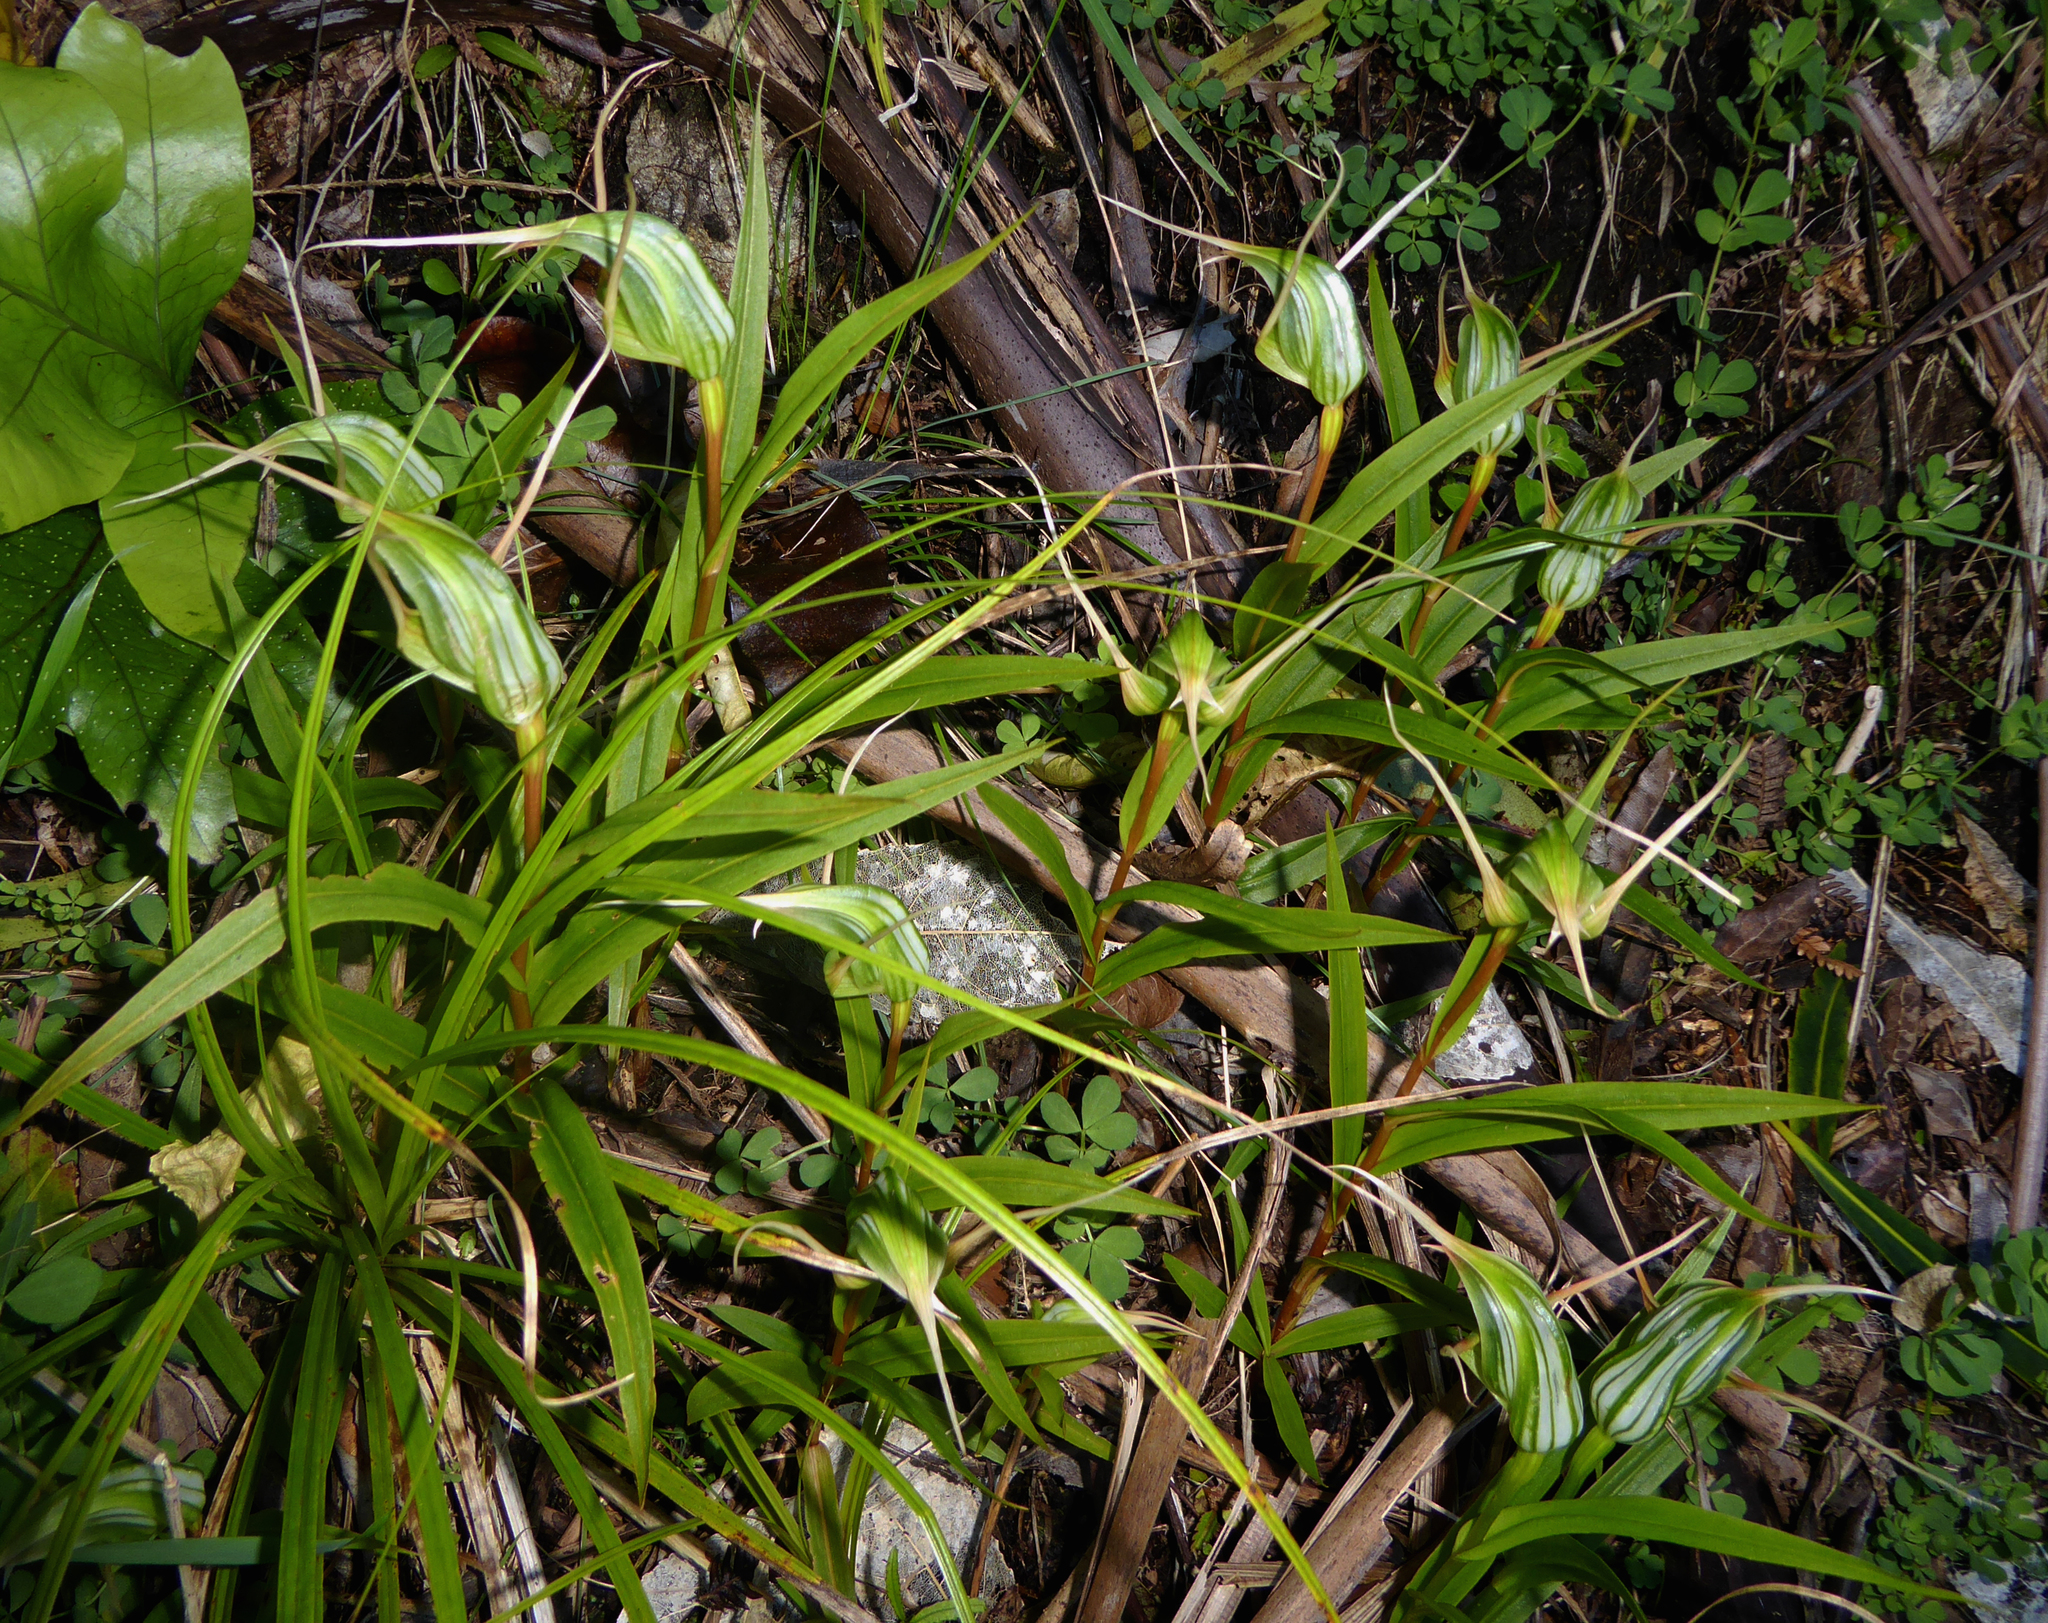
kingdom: Plantae
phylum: Tracheophyta
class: Liliopsida
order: Asparagales
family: Orchidaceae
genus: Pterostylis
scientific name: Pterostylis banksii
